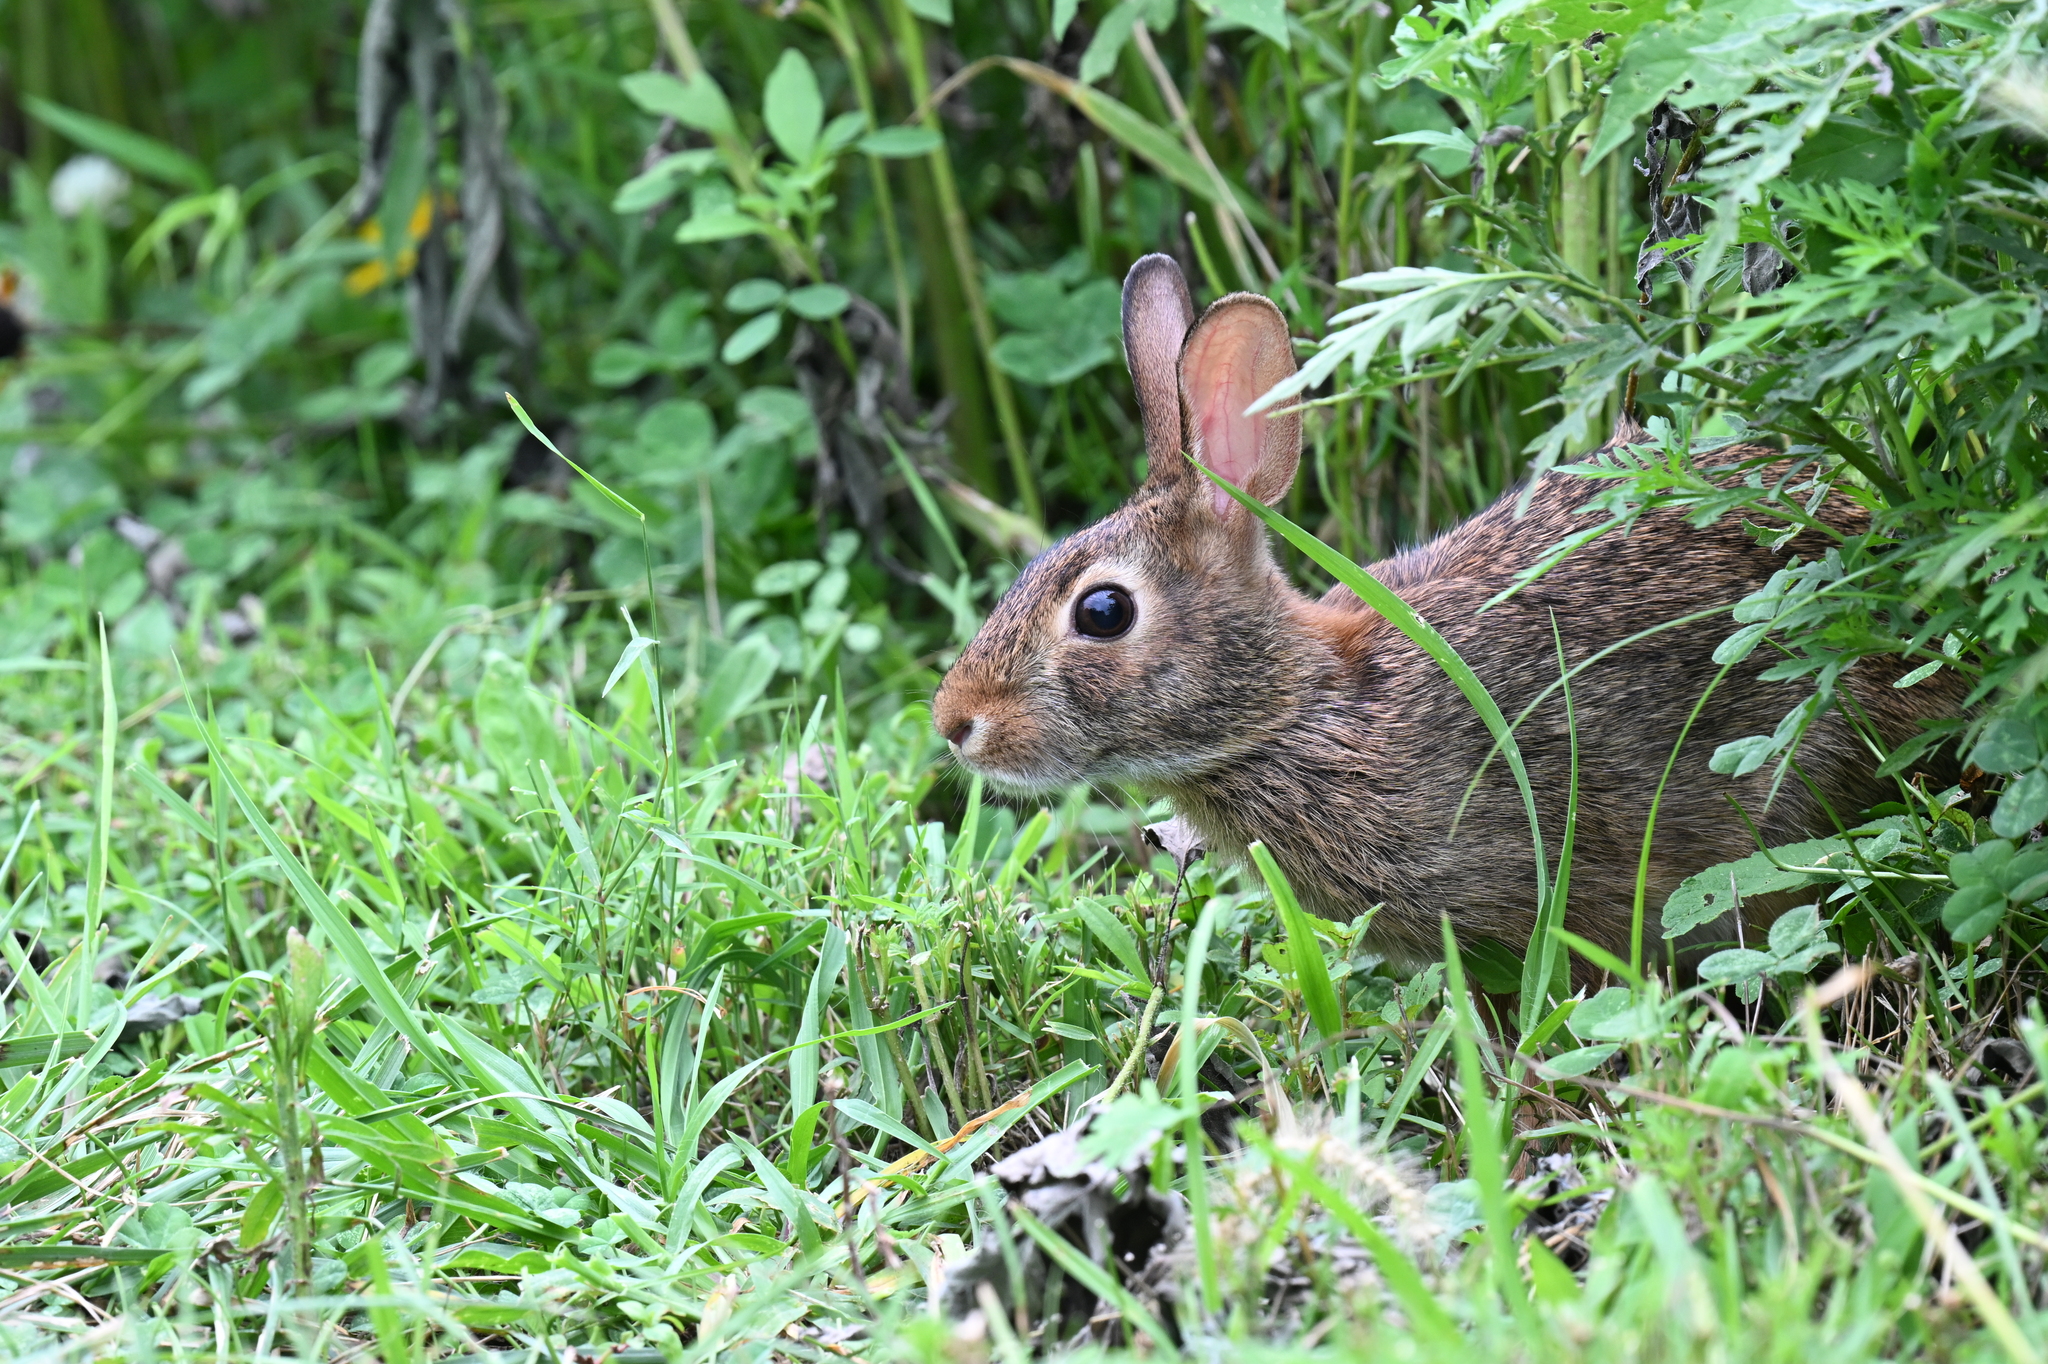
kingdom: Animalia
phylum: Chordata
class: Mammalia
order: Lagomorpha
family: Leporidae
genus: Sylvilagus
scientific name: Sylvilagus floridanus
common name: Eastern cottontail
